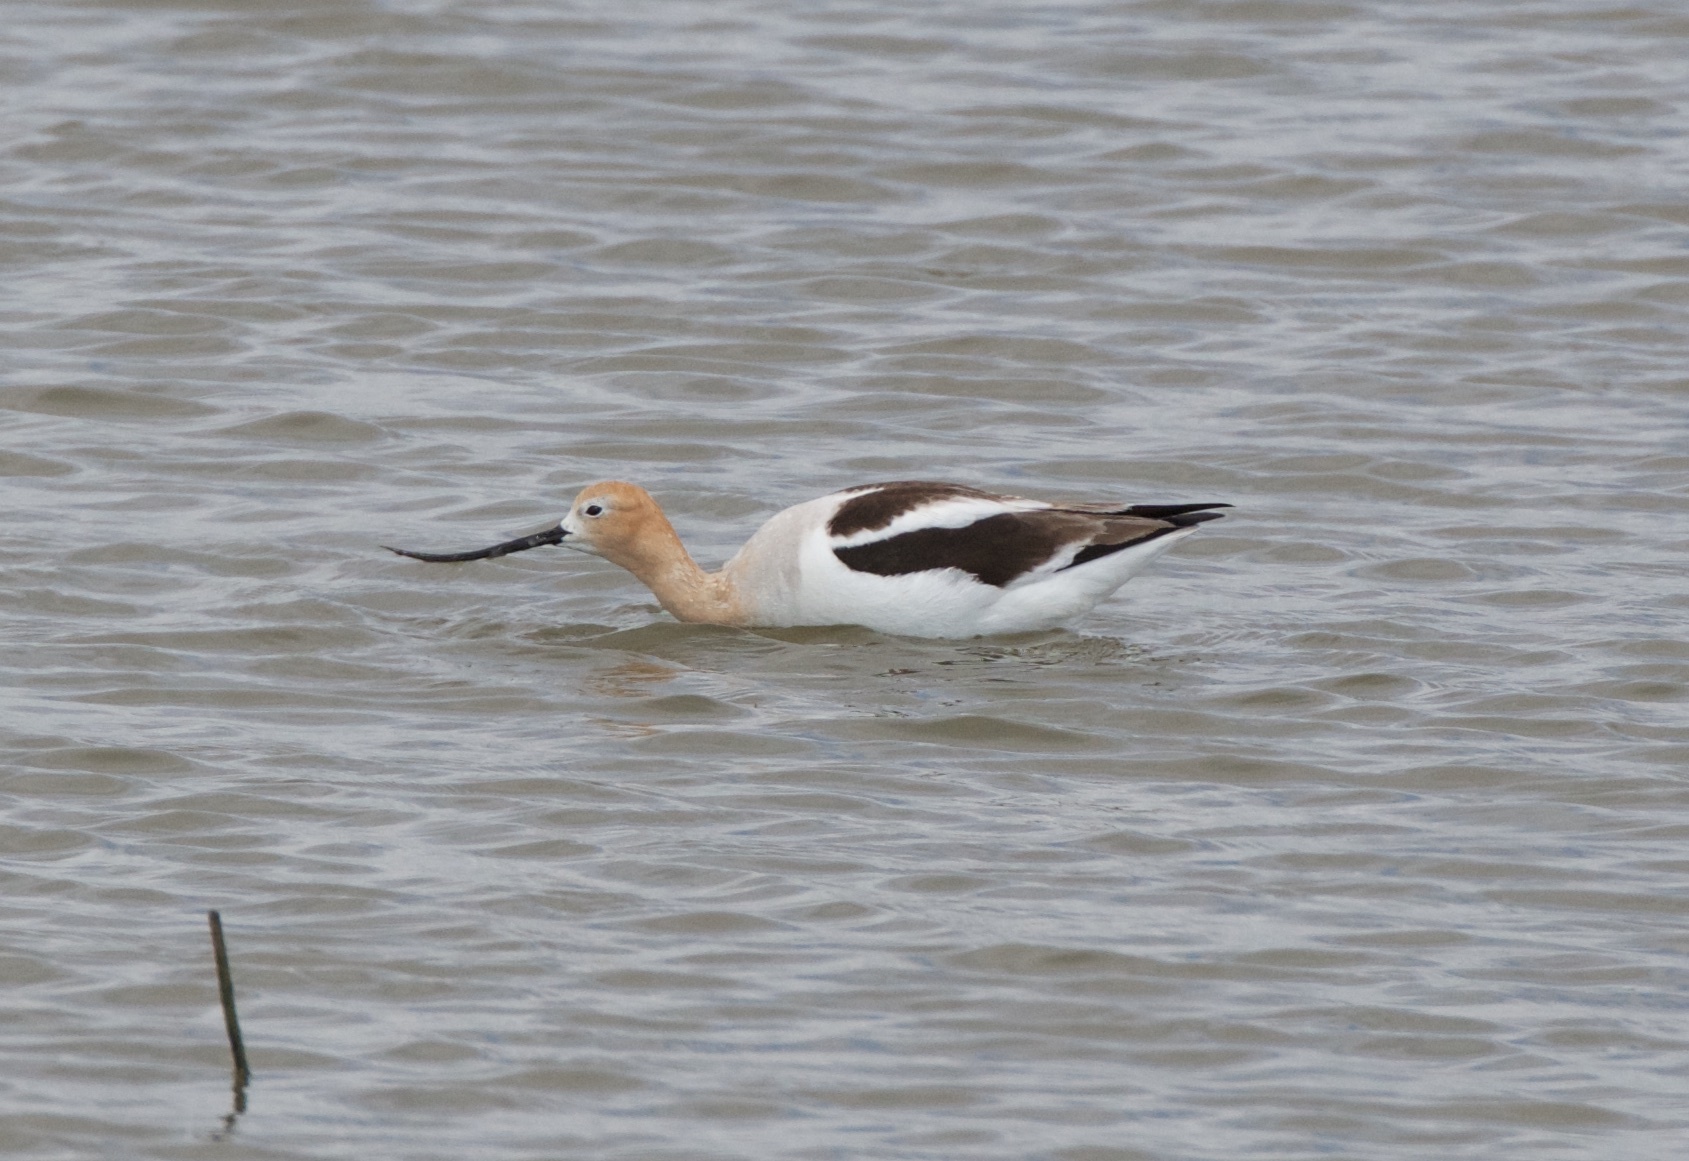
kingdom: Animalia
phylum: Chordata
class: Aves
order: Charadriiformes
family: Recurvirostridae
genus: Recurvirostra
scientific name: Recurvirostra americana
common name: American avocet
